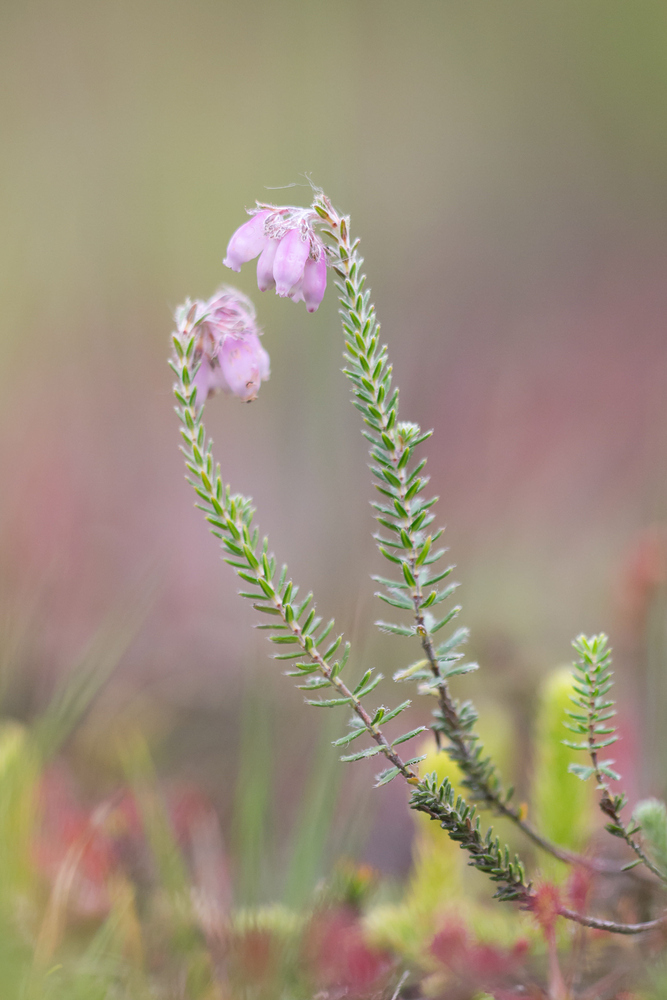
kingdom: Plantae
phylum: Tracheophyta
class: Magnoliopsida
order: Ericales
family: Ericaceae
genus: Erica
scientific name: Erica tetralix
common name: Cross-leaved heath
